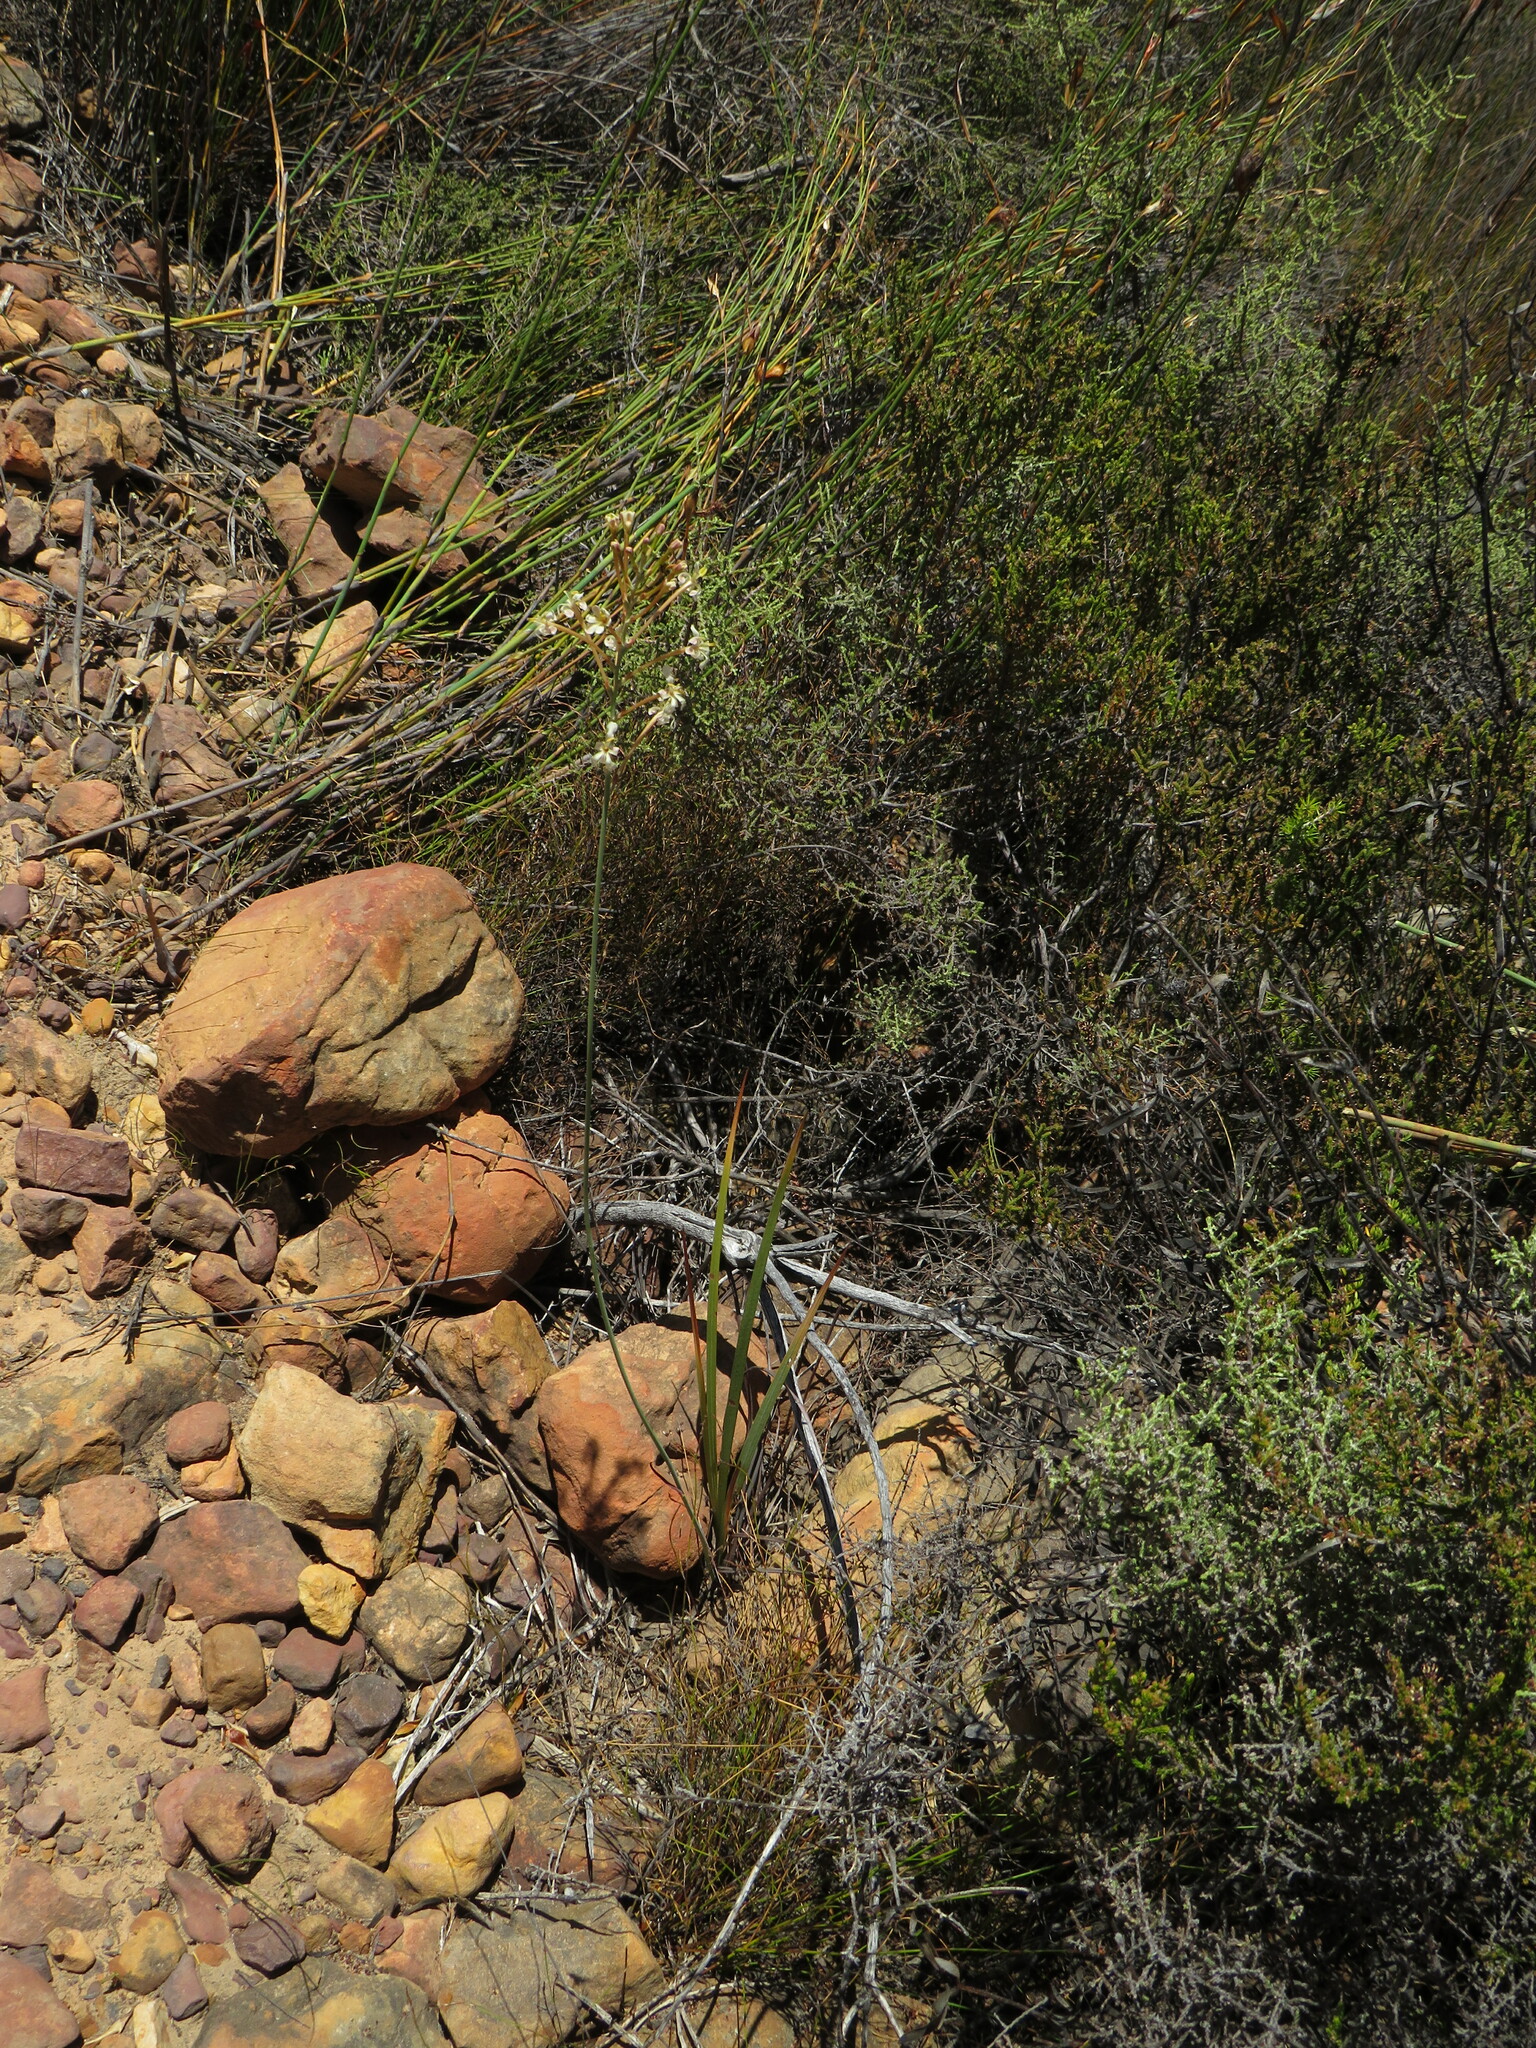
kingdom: Plantae
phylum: Tracheophyta
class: Liliopsida
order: Asparagales
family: Iridaceae
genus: Tritoniopsis
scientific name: Tritoniopsis nervosa
